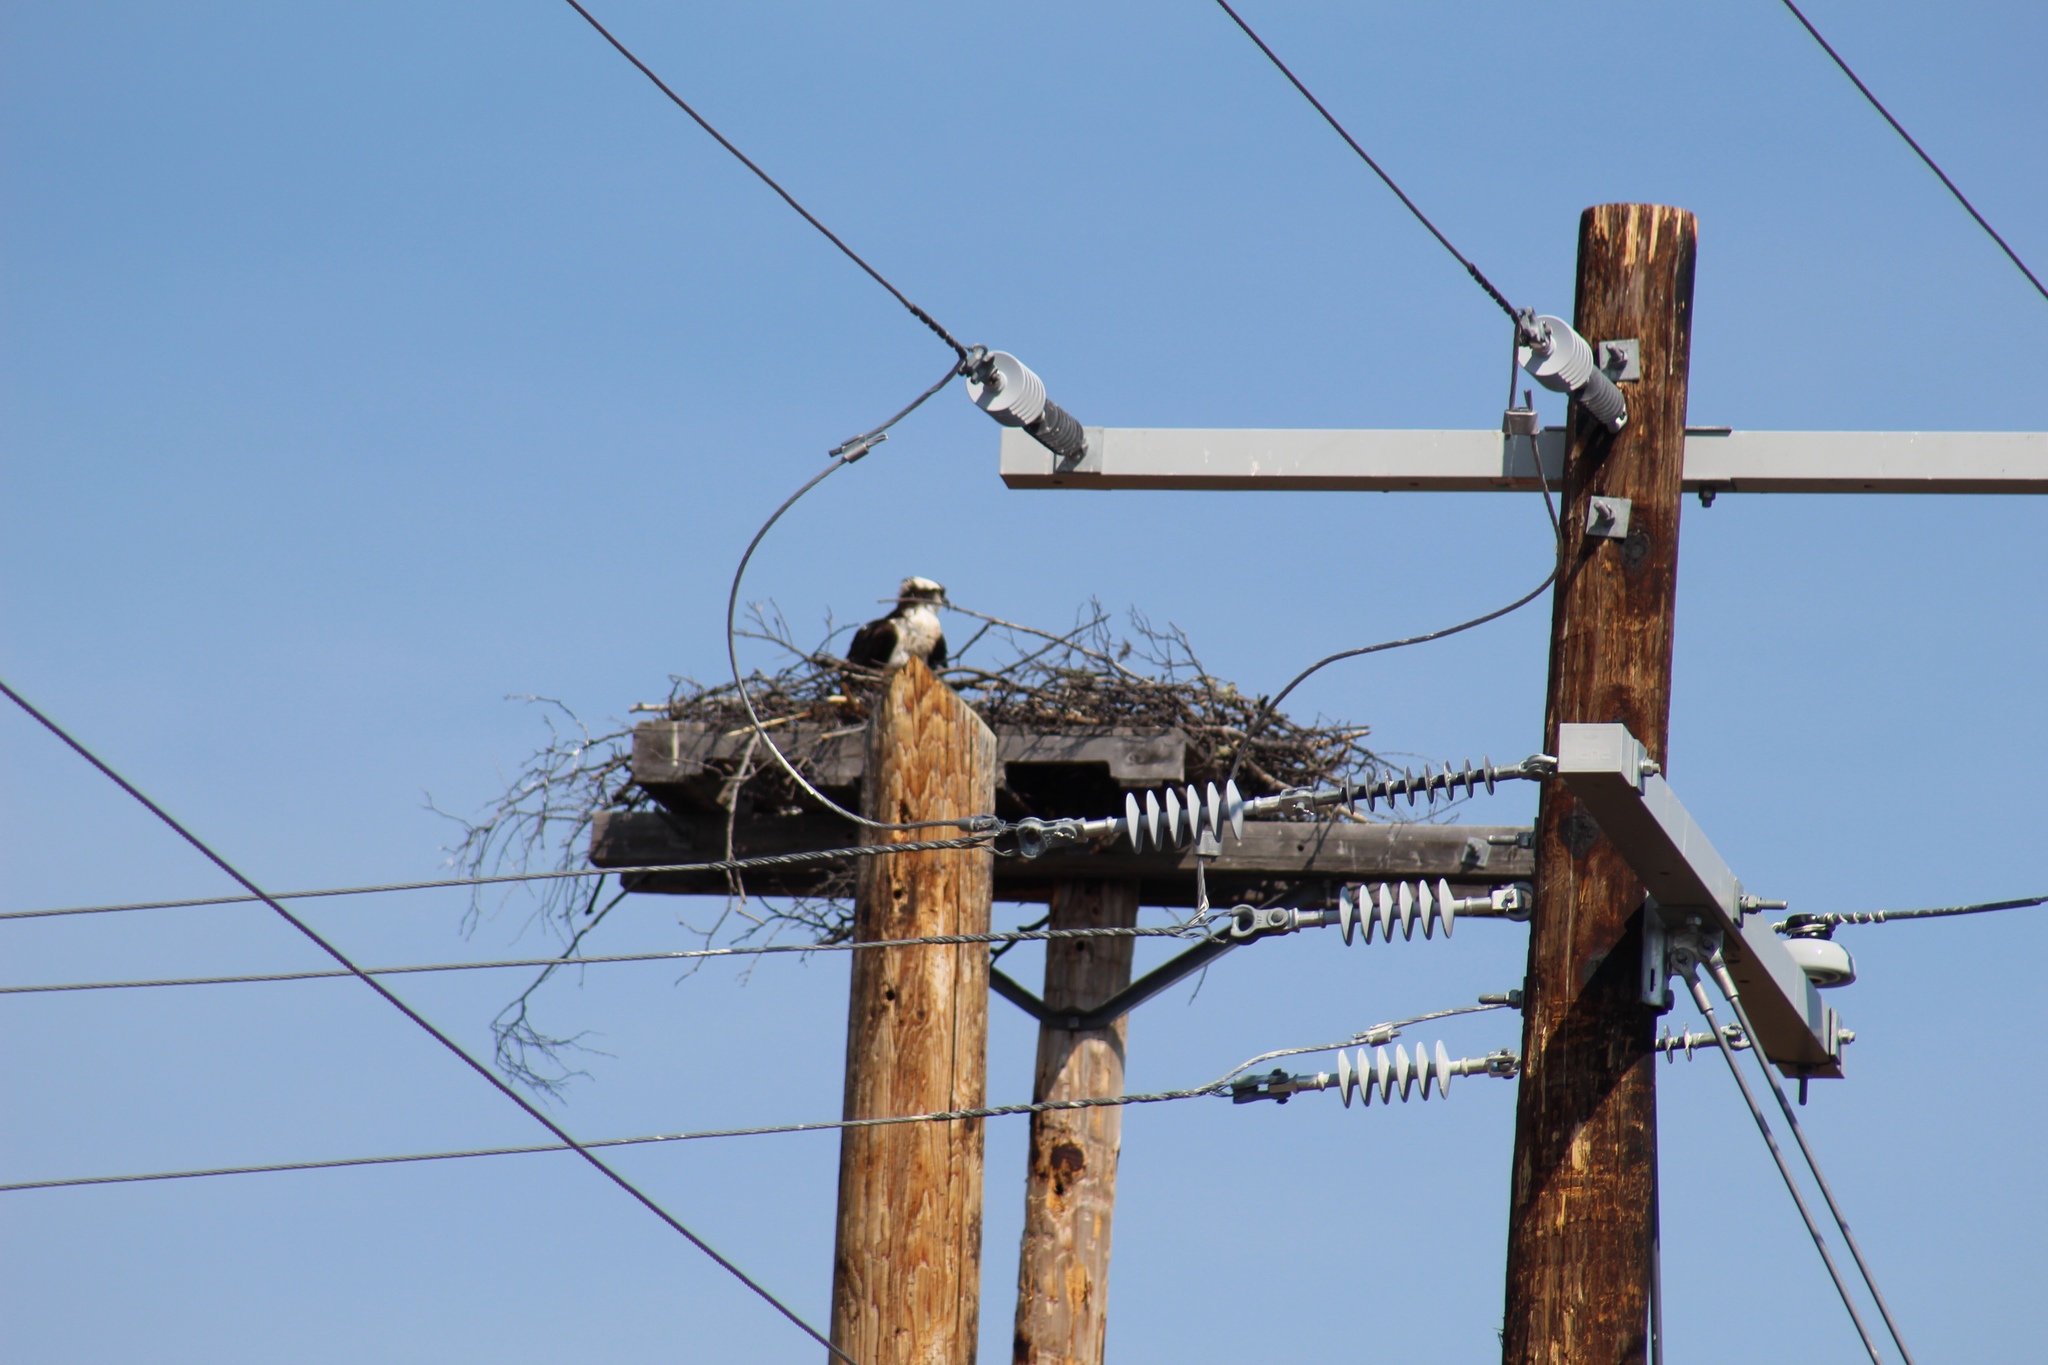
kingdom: Animalia
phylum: Chordata
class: Aves
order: Accipitriformes
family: Pandionidae
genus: Pandion
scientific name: Pandion haliaetus
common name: Osprey
